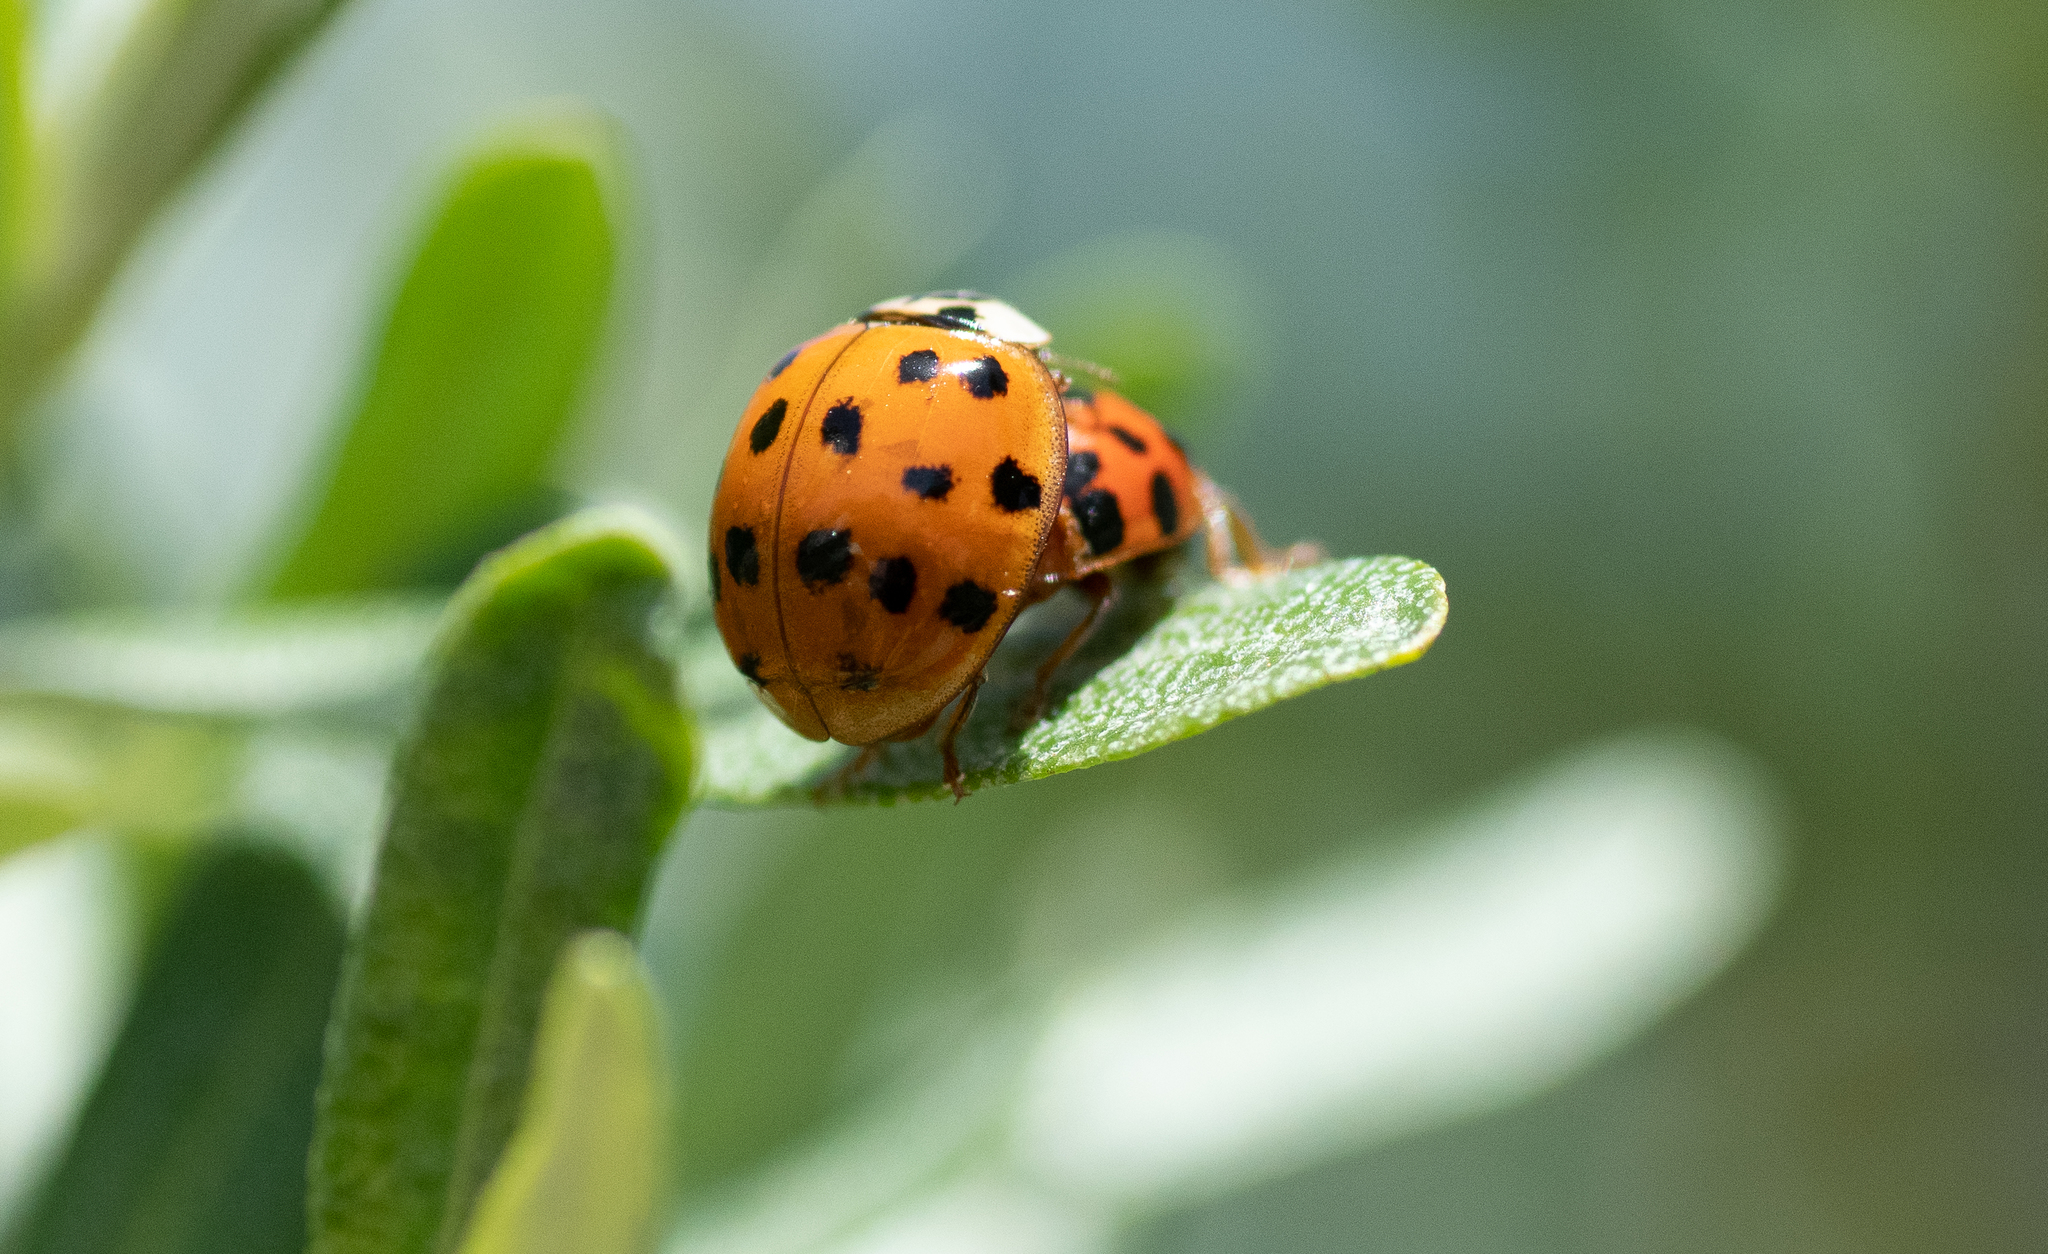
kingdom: Animalia
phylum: Arthropoda
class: Insecta
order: Coleoptera
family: Coccinellidae
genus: Harmonia
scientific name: Harmonia axyridis
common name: Harlequin ladybird
